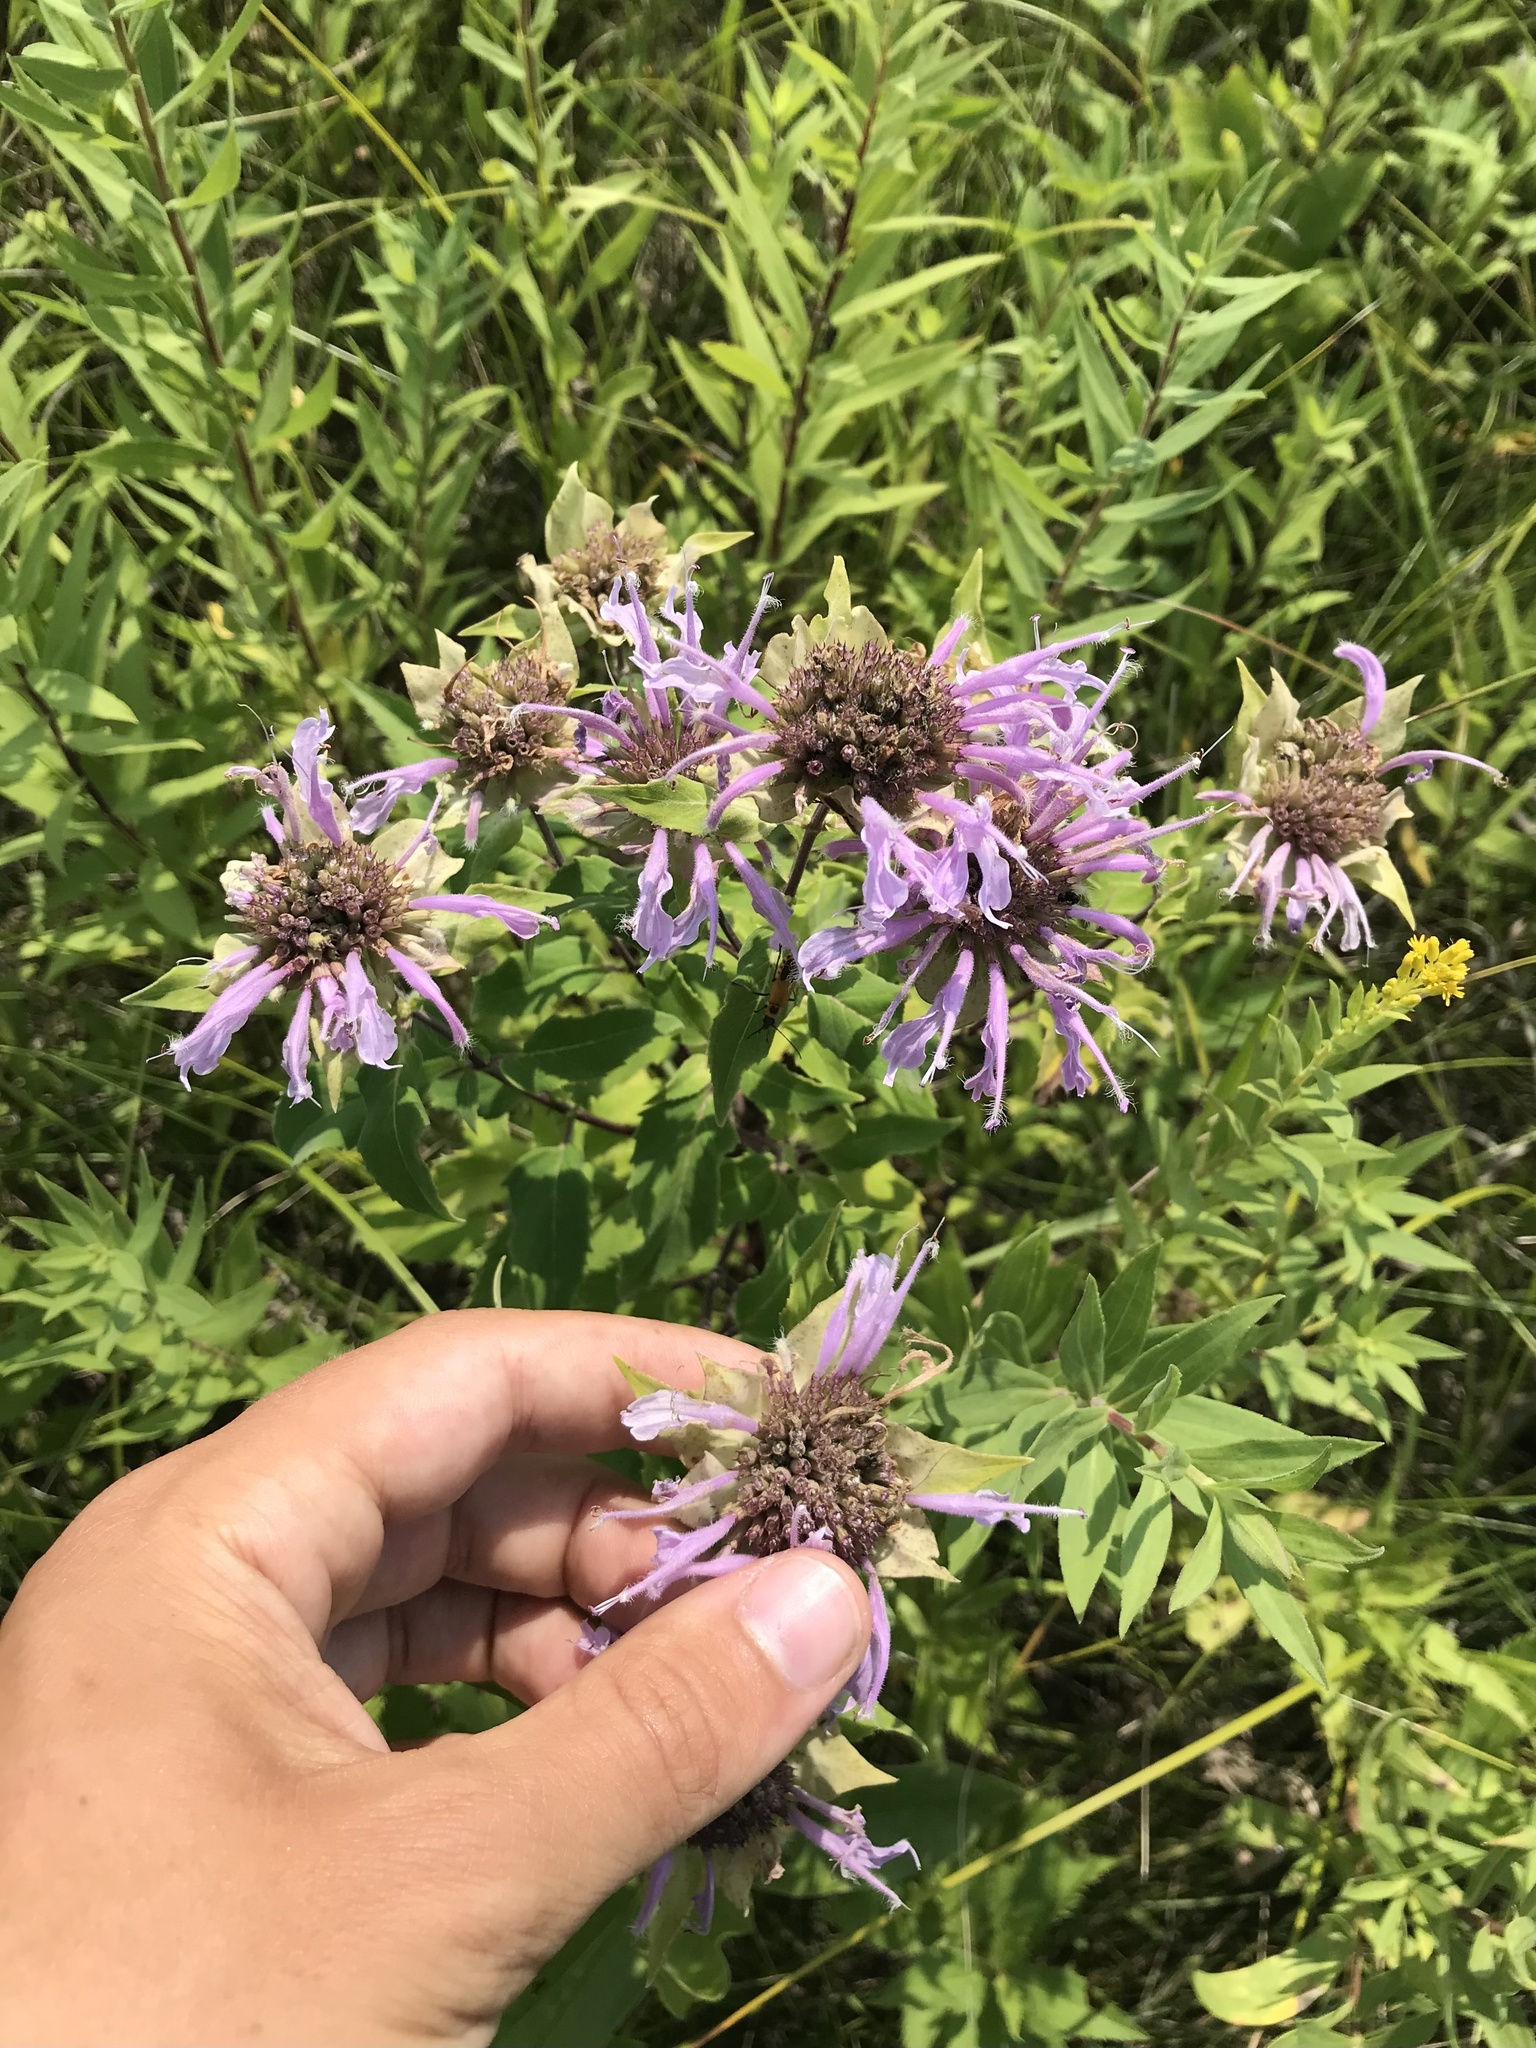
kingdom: Plantae
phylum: Tracheophyta
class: Magnoliopsida
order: Lamiales
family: Lamiaceae
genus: Monarda
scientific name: Monarda fistulosa
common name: Purple beebalm
